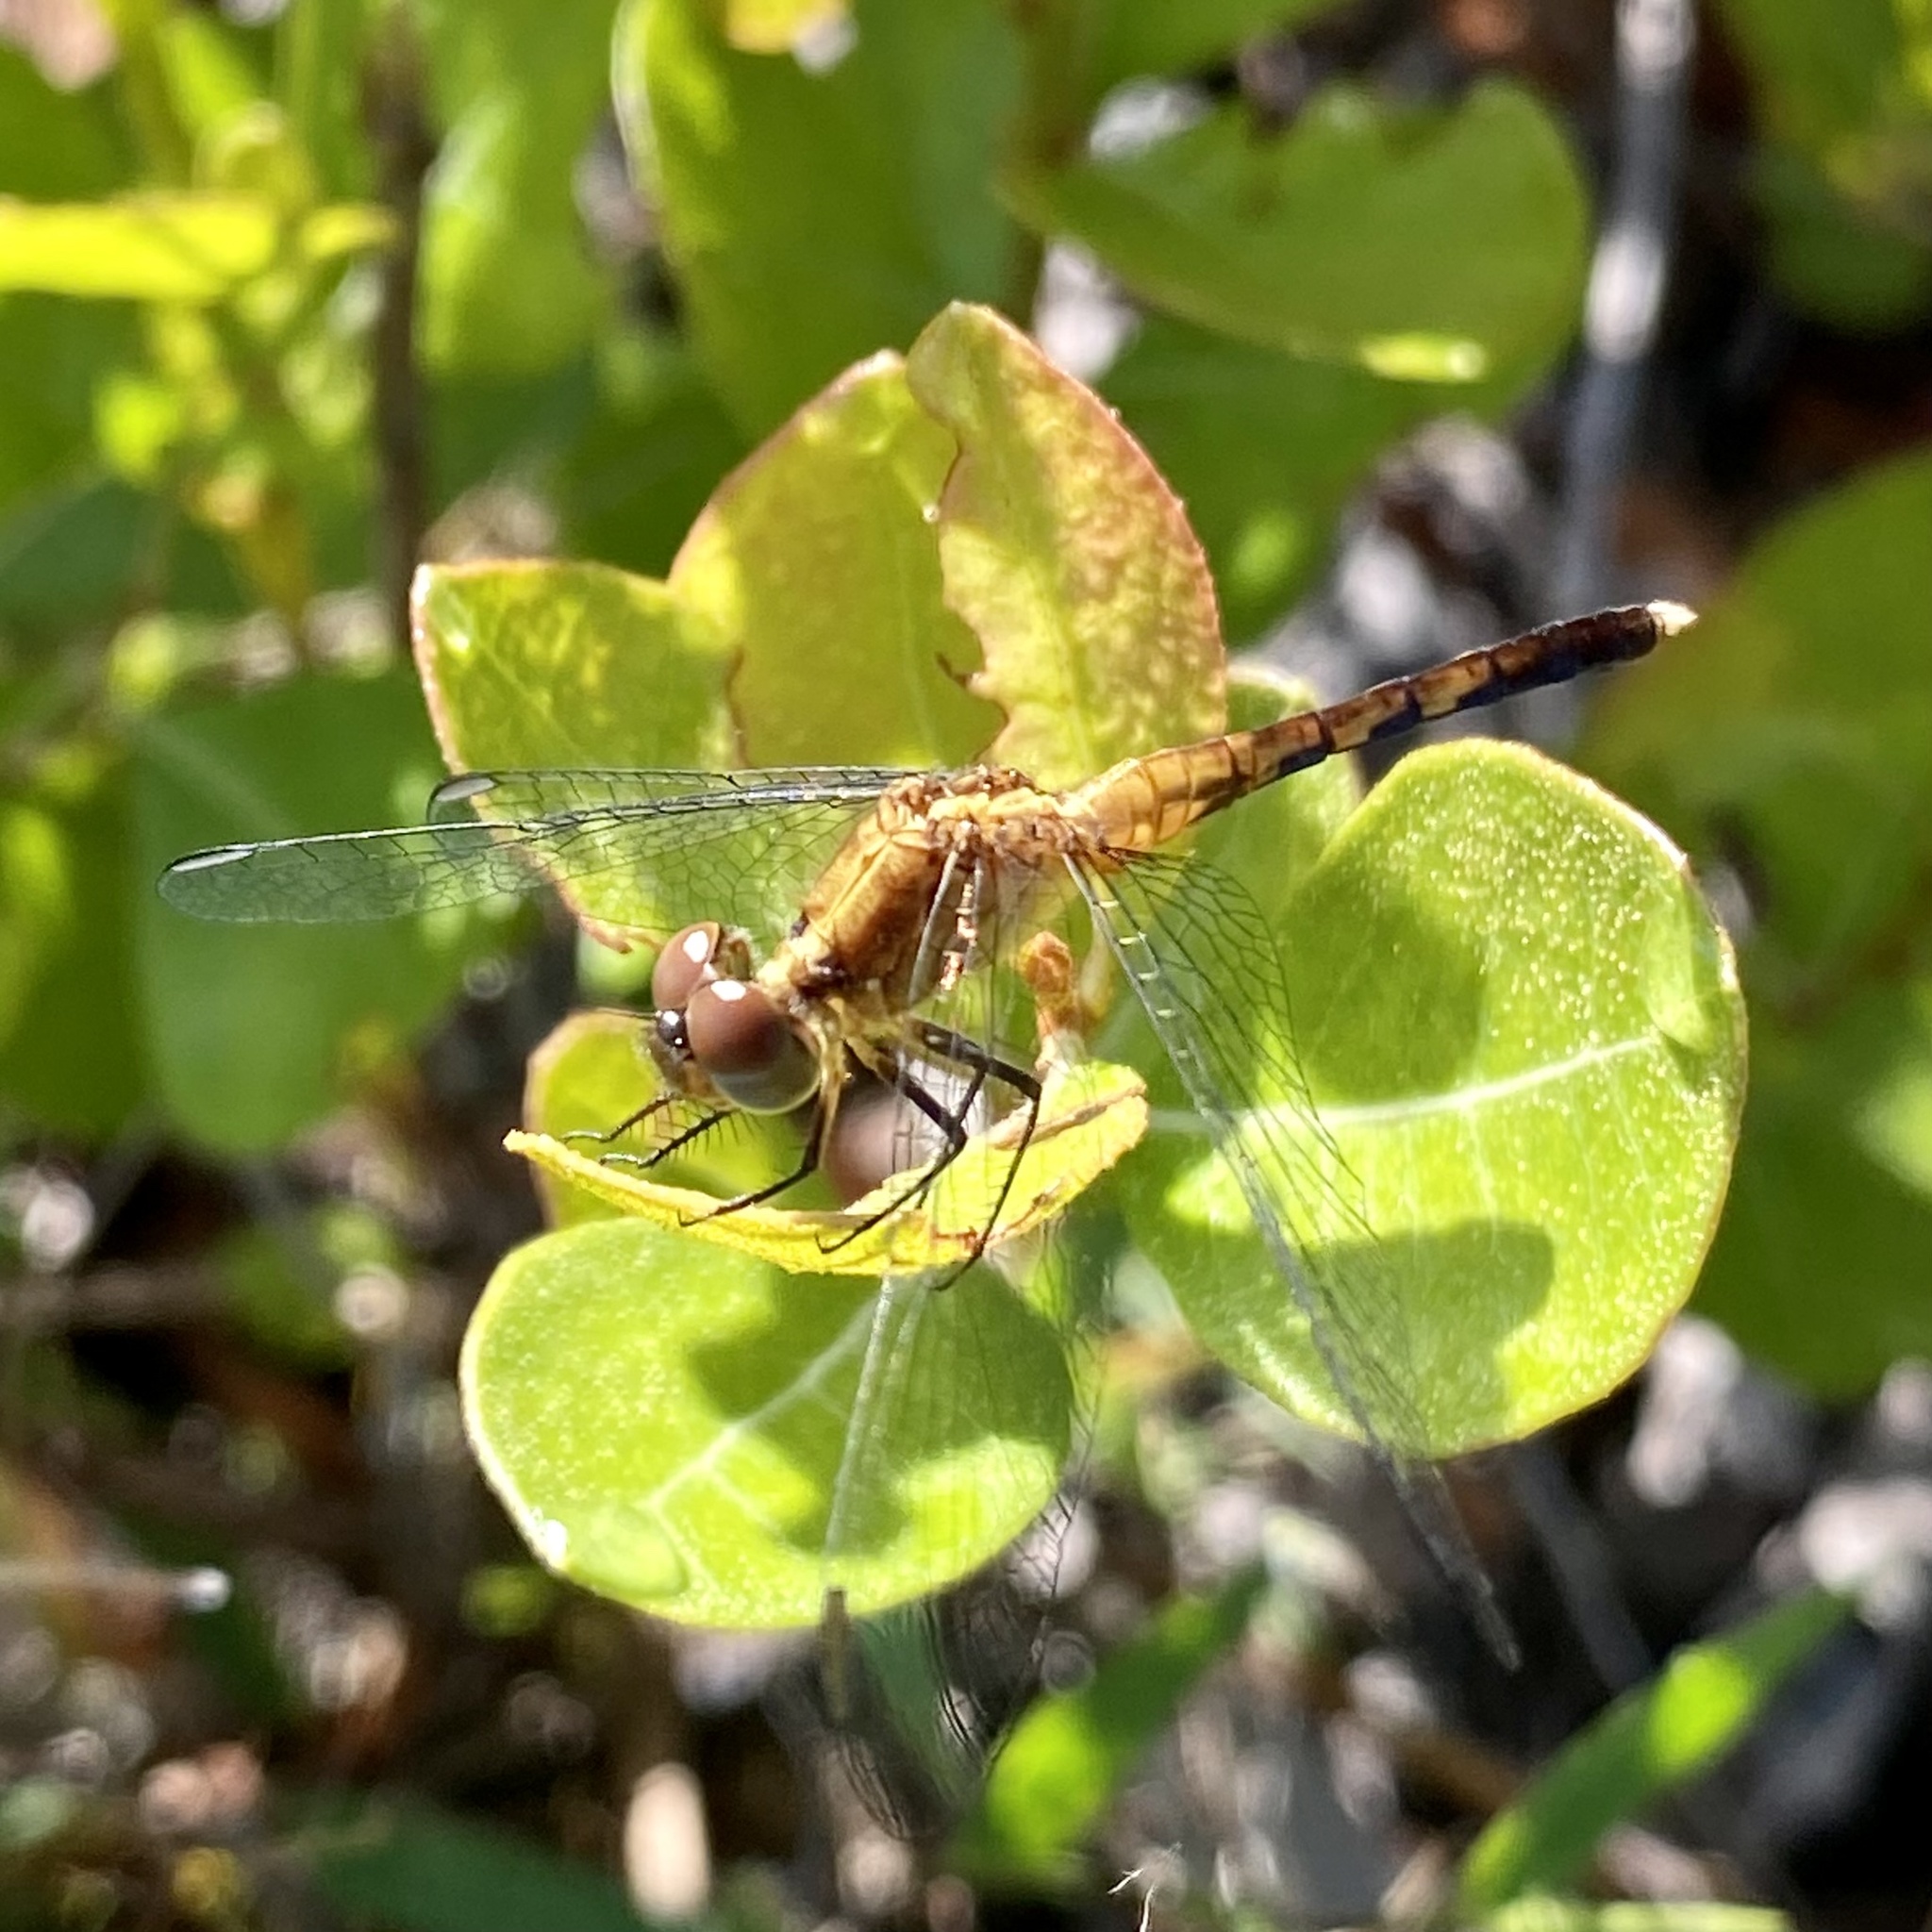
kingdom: Animalia
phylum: Arthropoda
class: Insecta
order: Odonata
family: Libellulidae
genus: Erythrodiplax
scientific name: Erythrodiplax minuscula
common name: Little blue dragonlet
